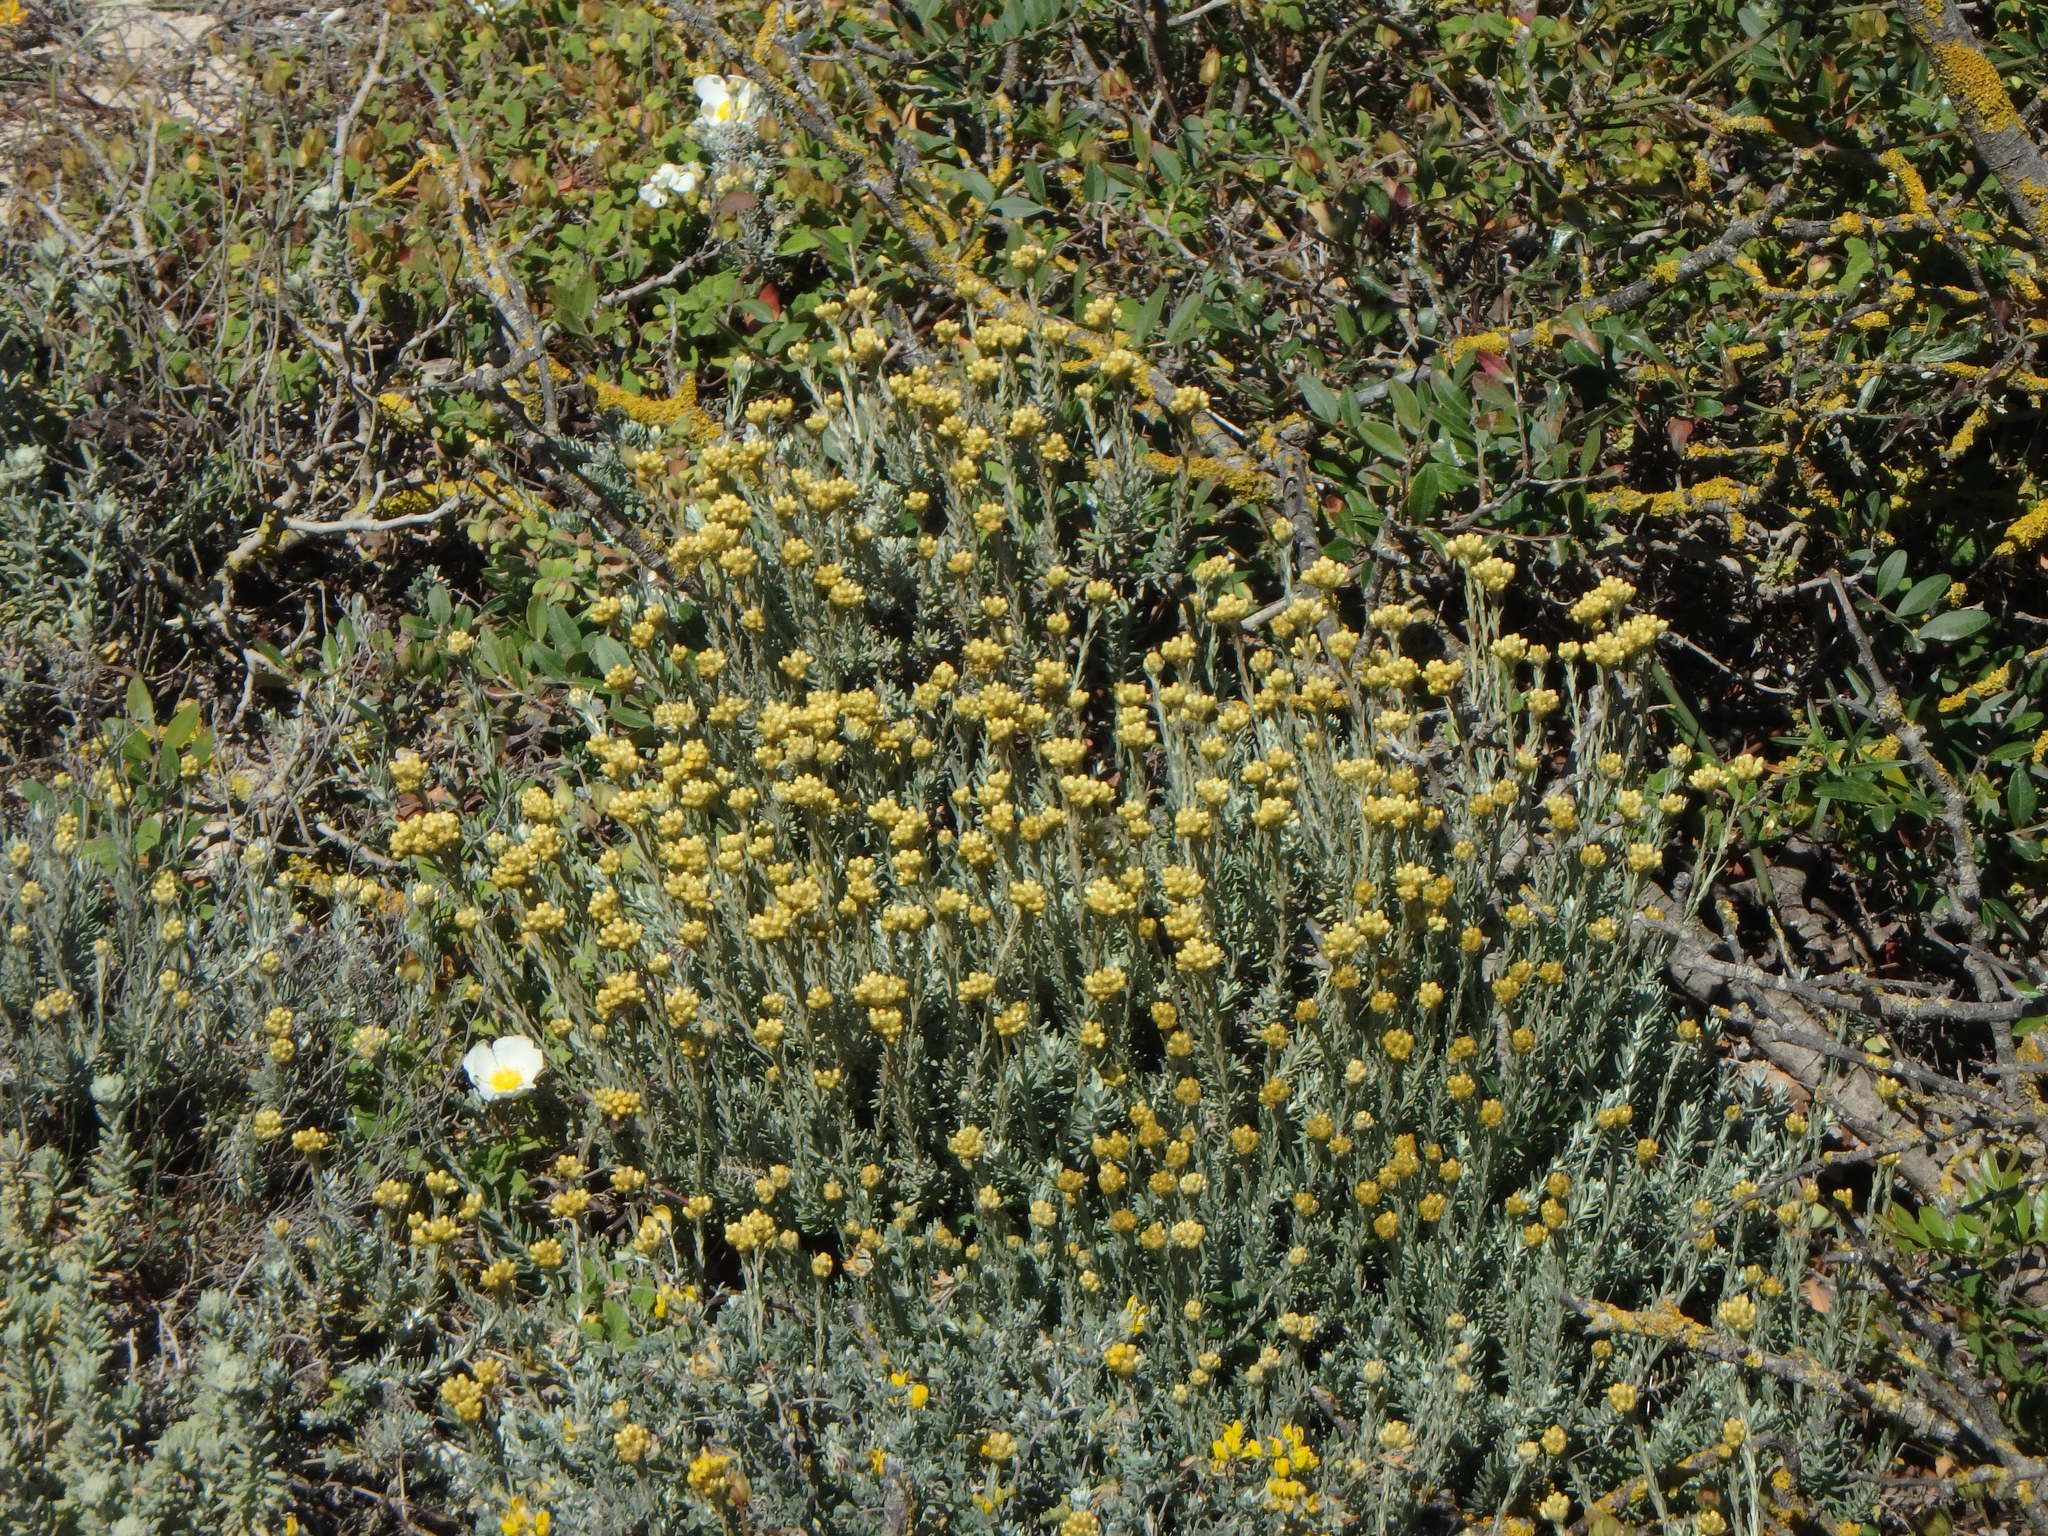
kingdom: Plantae
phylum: Tracheophyta
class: Magnoliopsida
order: Asterales
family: Asteraceae
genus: Helichrysum
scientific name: Helichrysum stoechas
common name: Goldilocks
